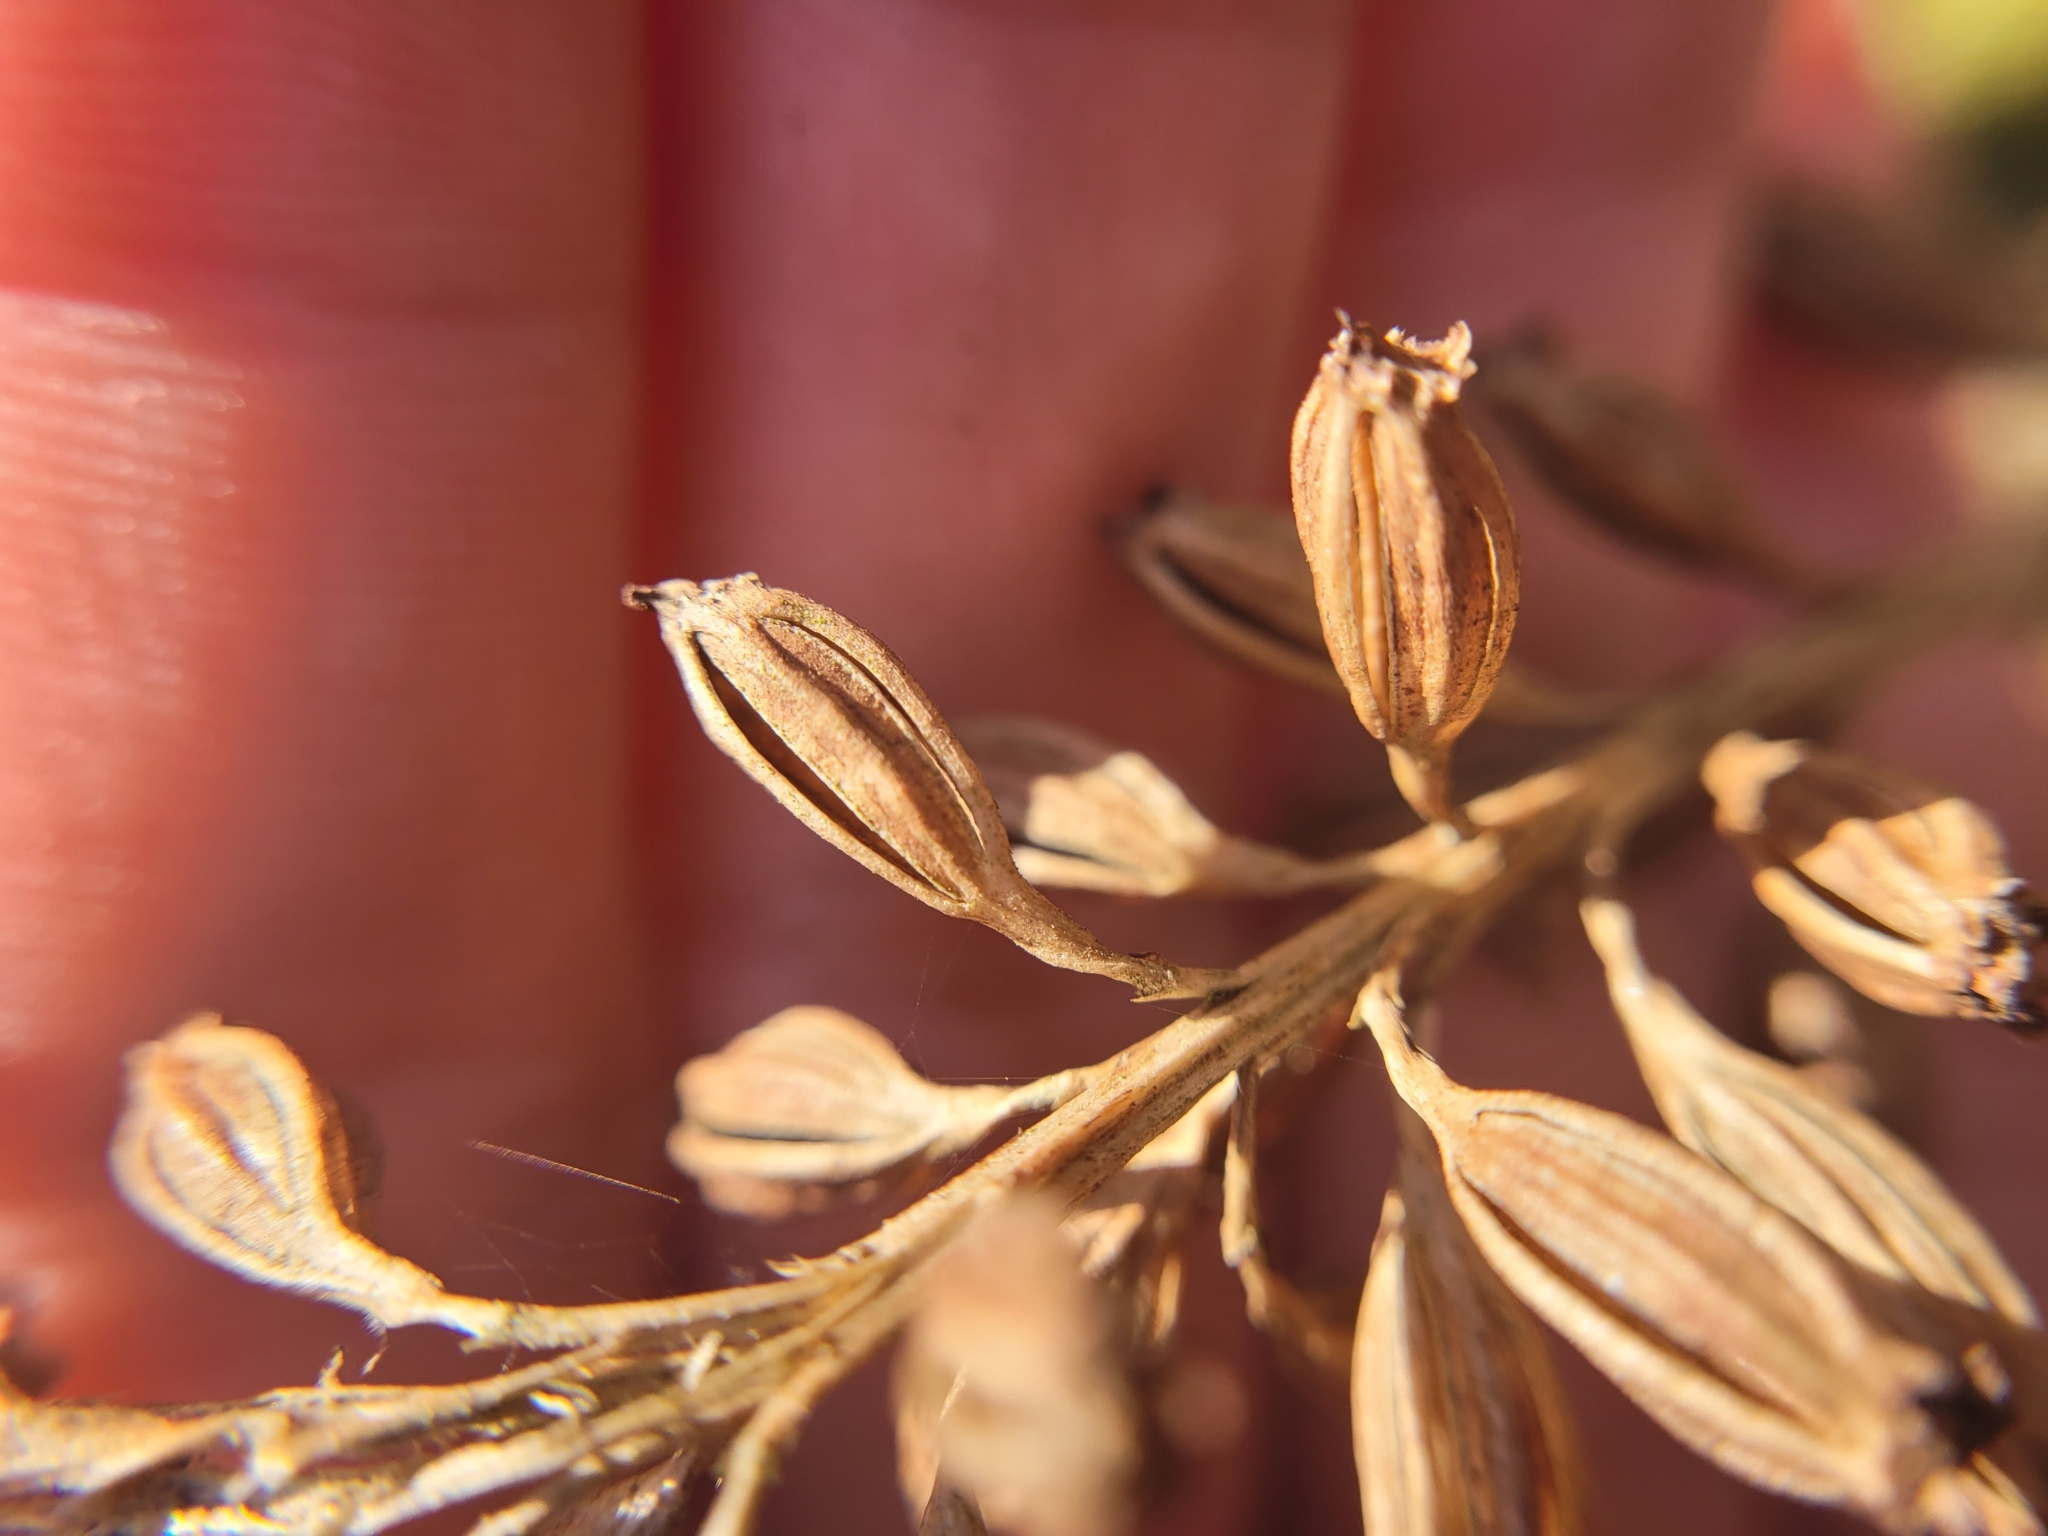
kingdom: Plantae
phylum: Tracheophyta
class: Liliopsida
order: Asparagales
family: Orchidaceae
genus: Neottia
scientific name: Neottia nidus-avis
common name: Bird's-nest orchid
